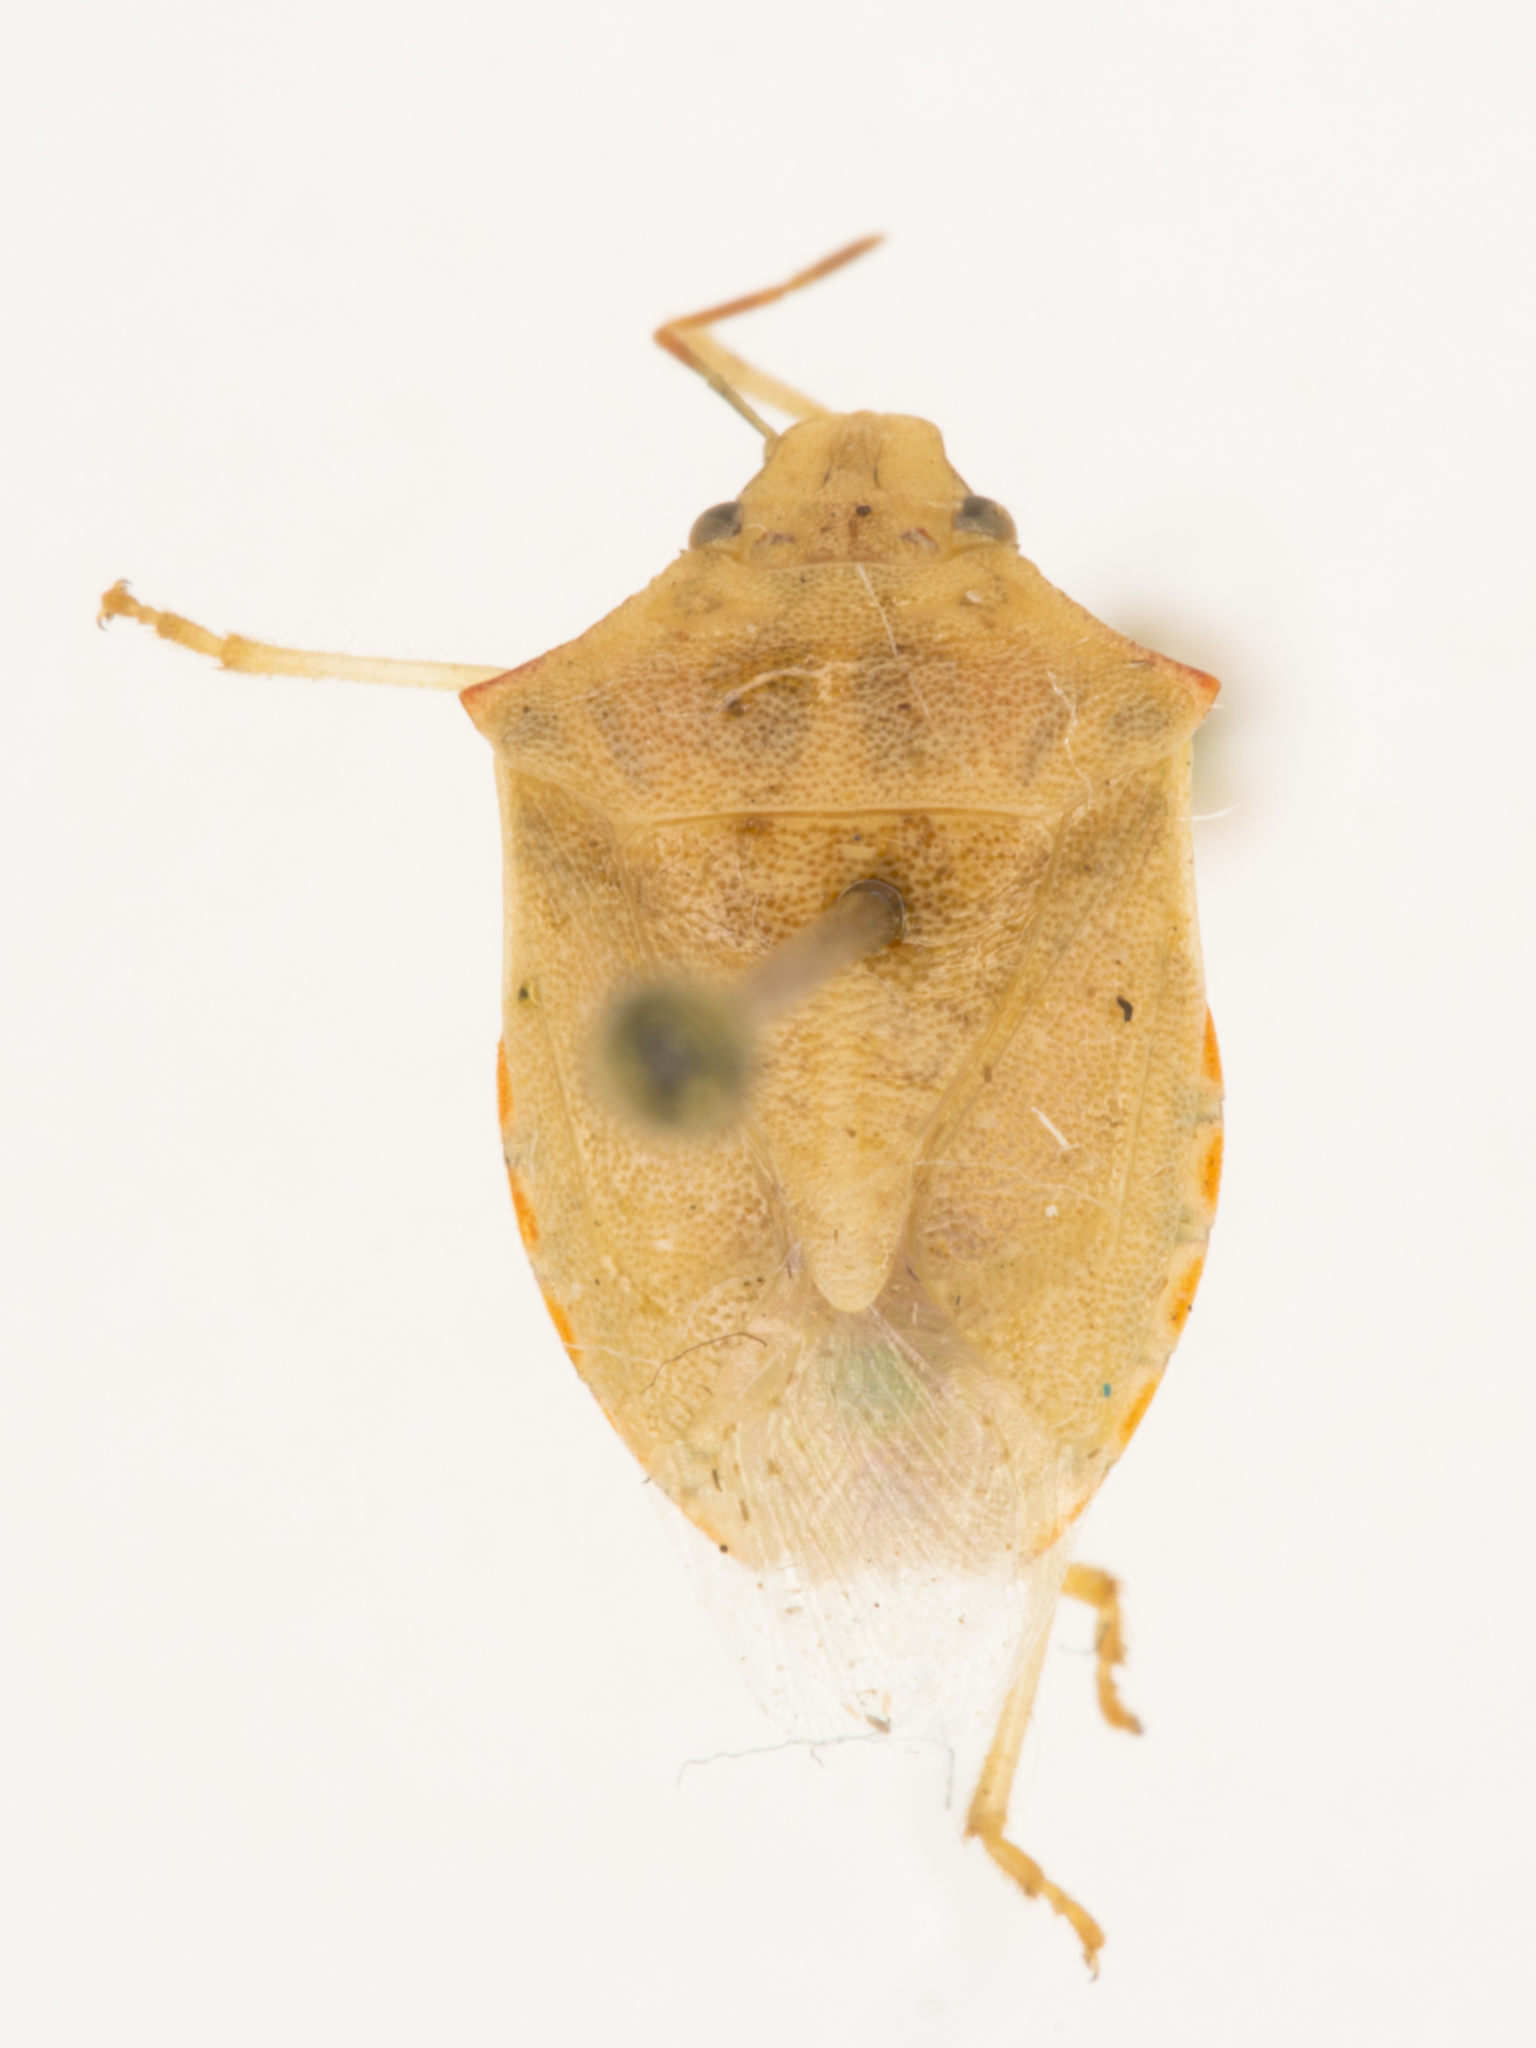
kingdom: Animalia
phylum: Arthropoda
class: Insecta
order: Hemiptera
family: Pentatomidae
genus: Thyanta
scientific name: Thyanta accerra
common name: Stink bug
